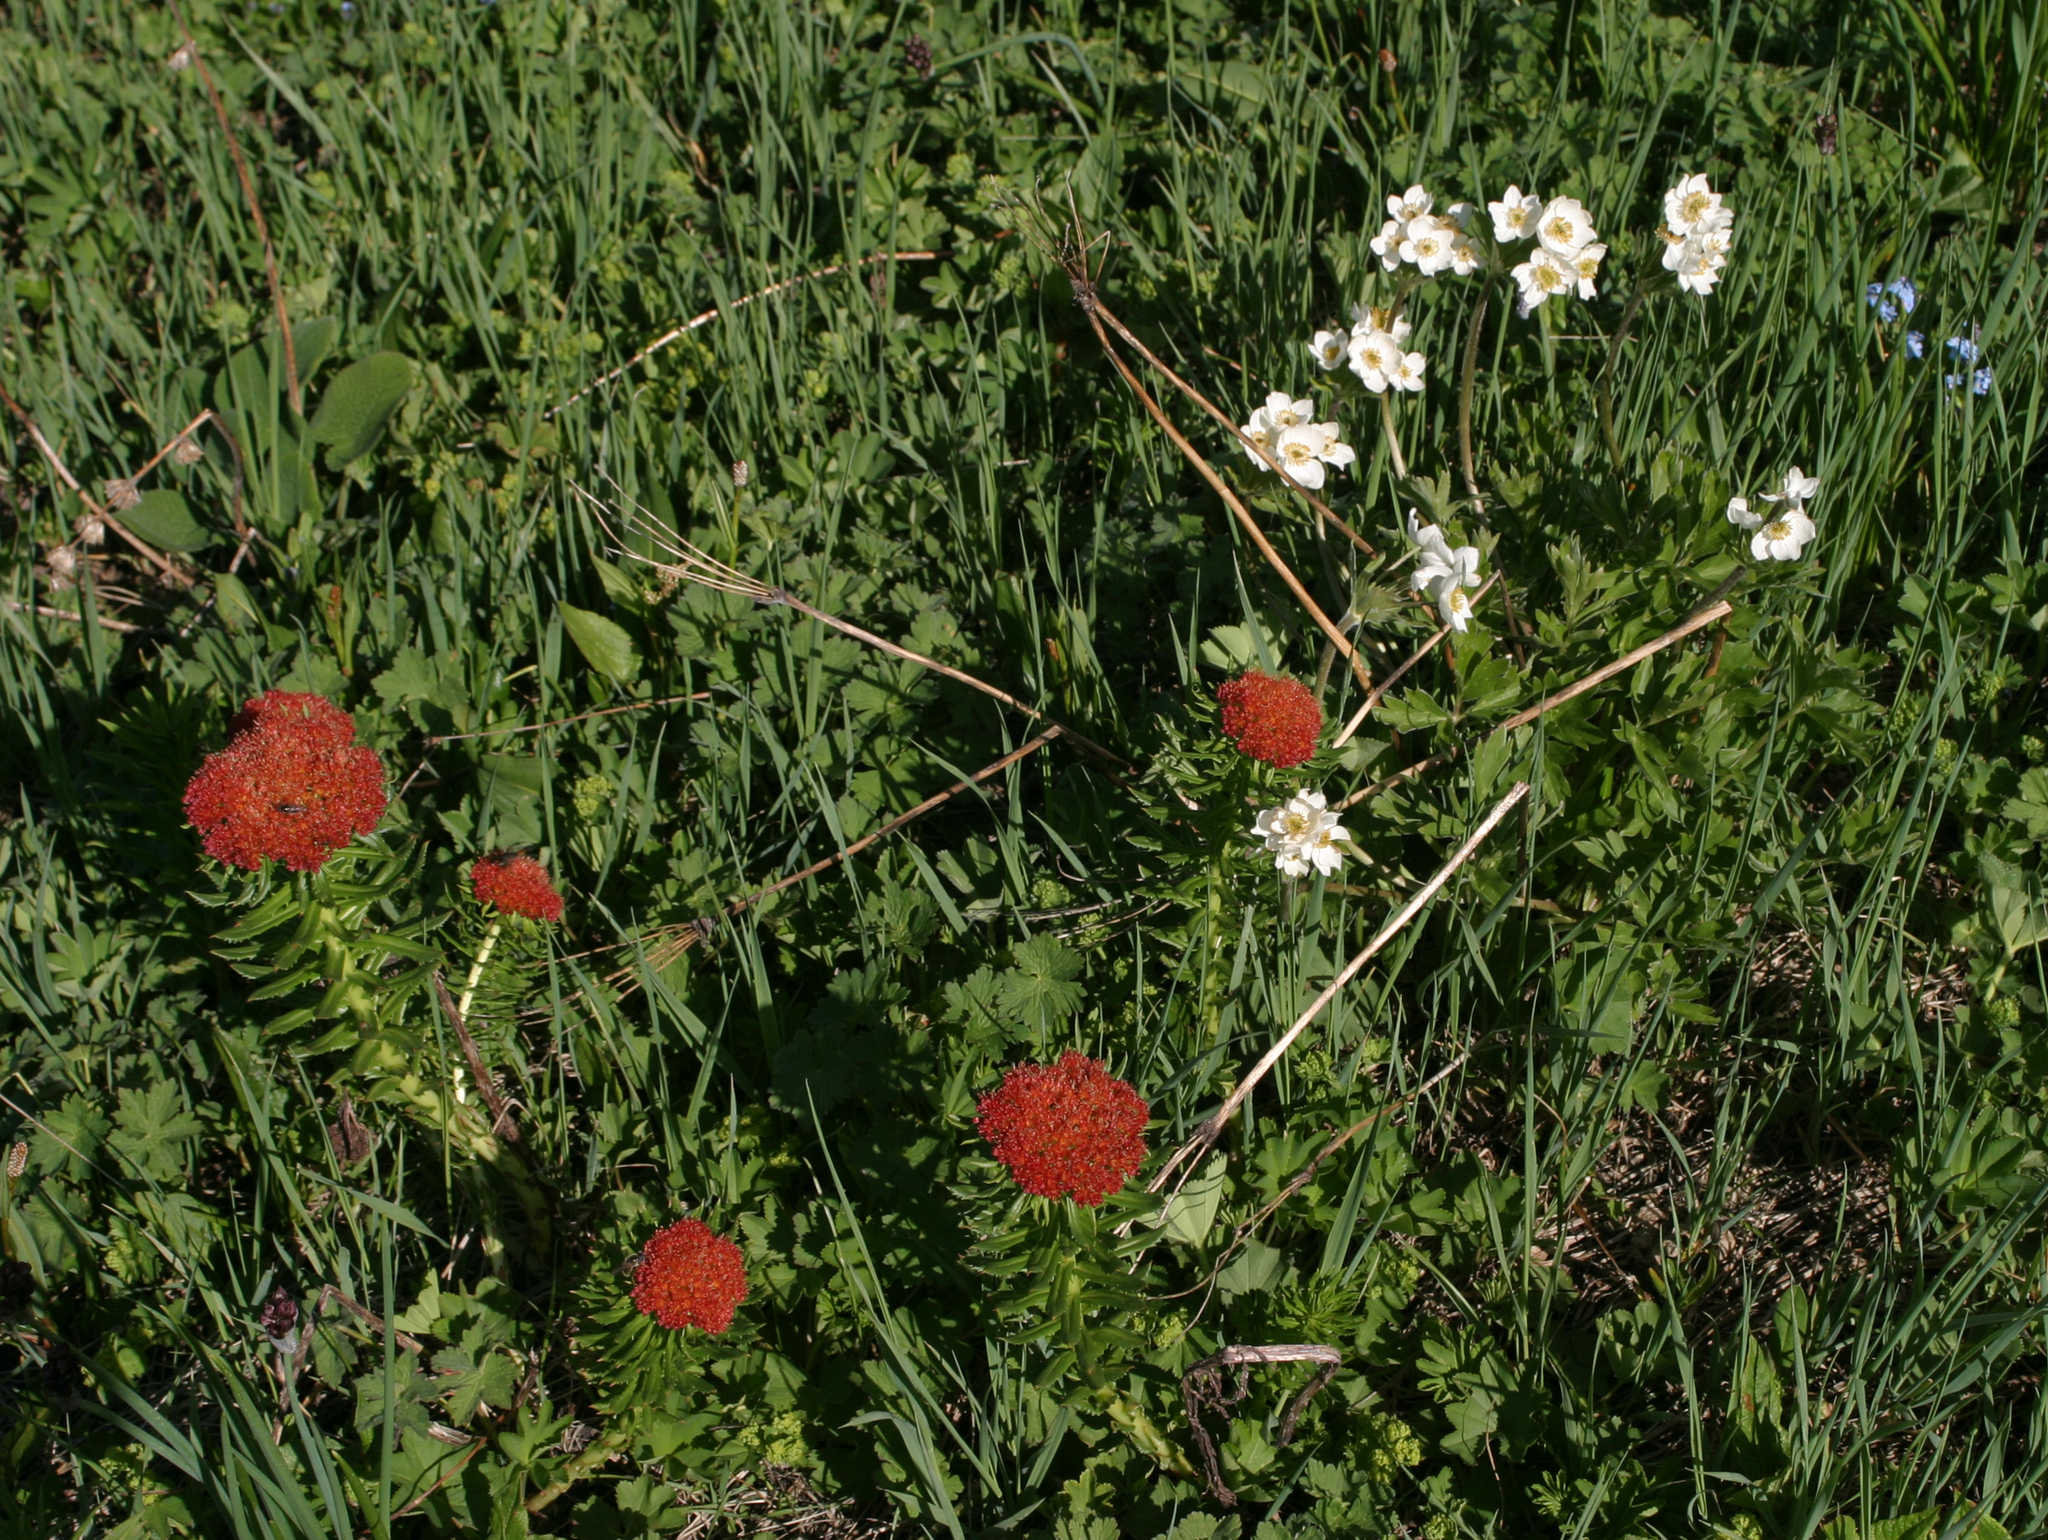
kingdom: Plantae
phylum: Tracheophyta
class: Magnoliopsida
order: Saxifragales
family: Crassulaceae
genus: Rhodiola
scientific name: Rhodiola kirilowii
